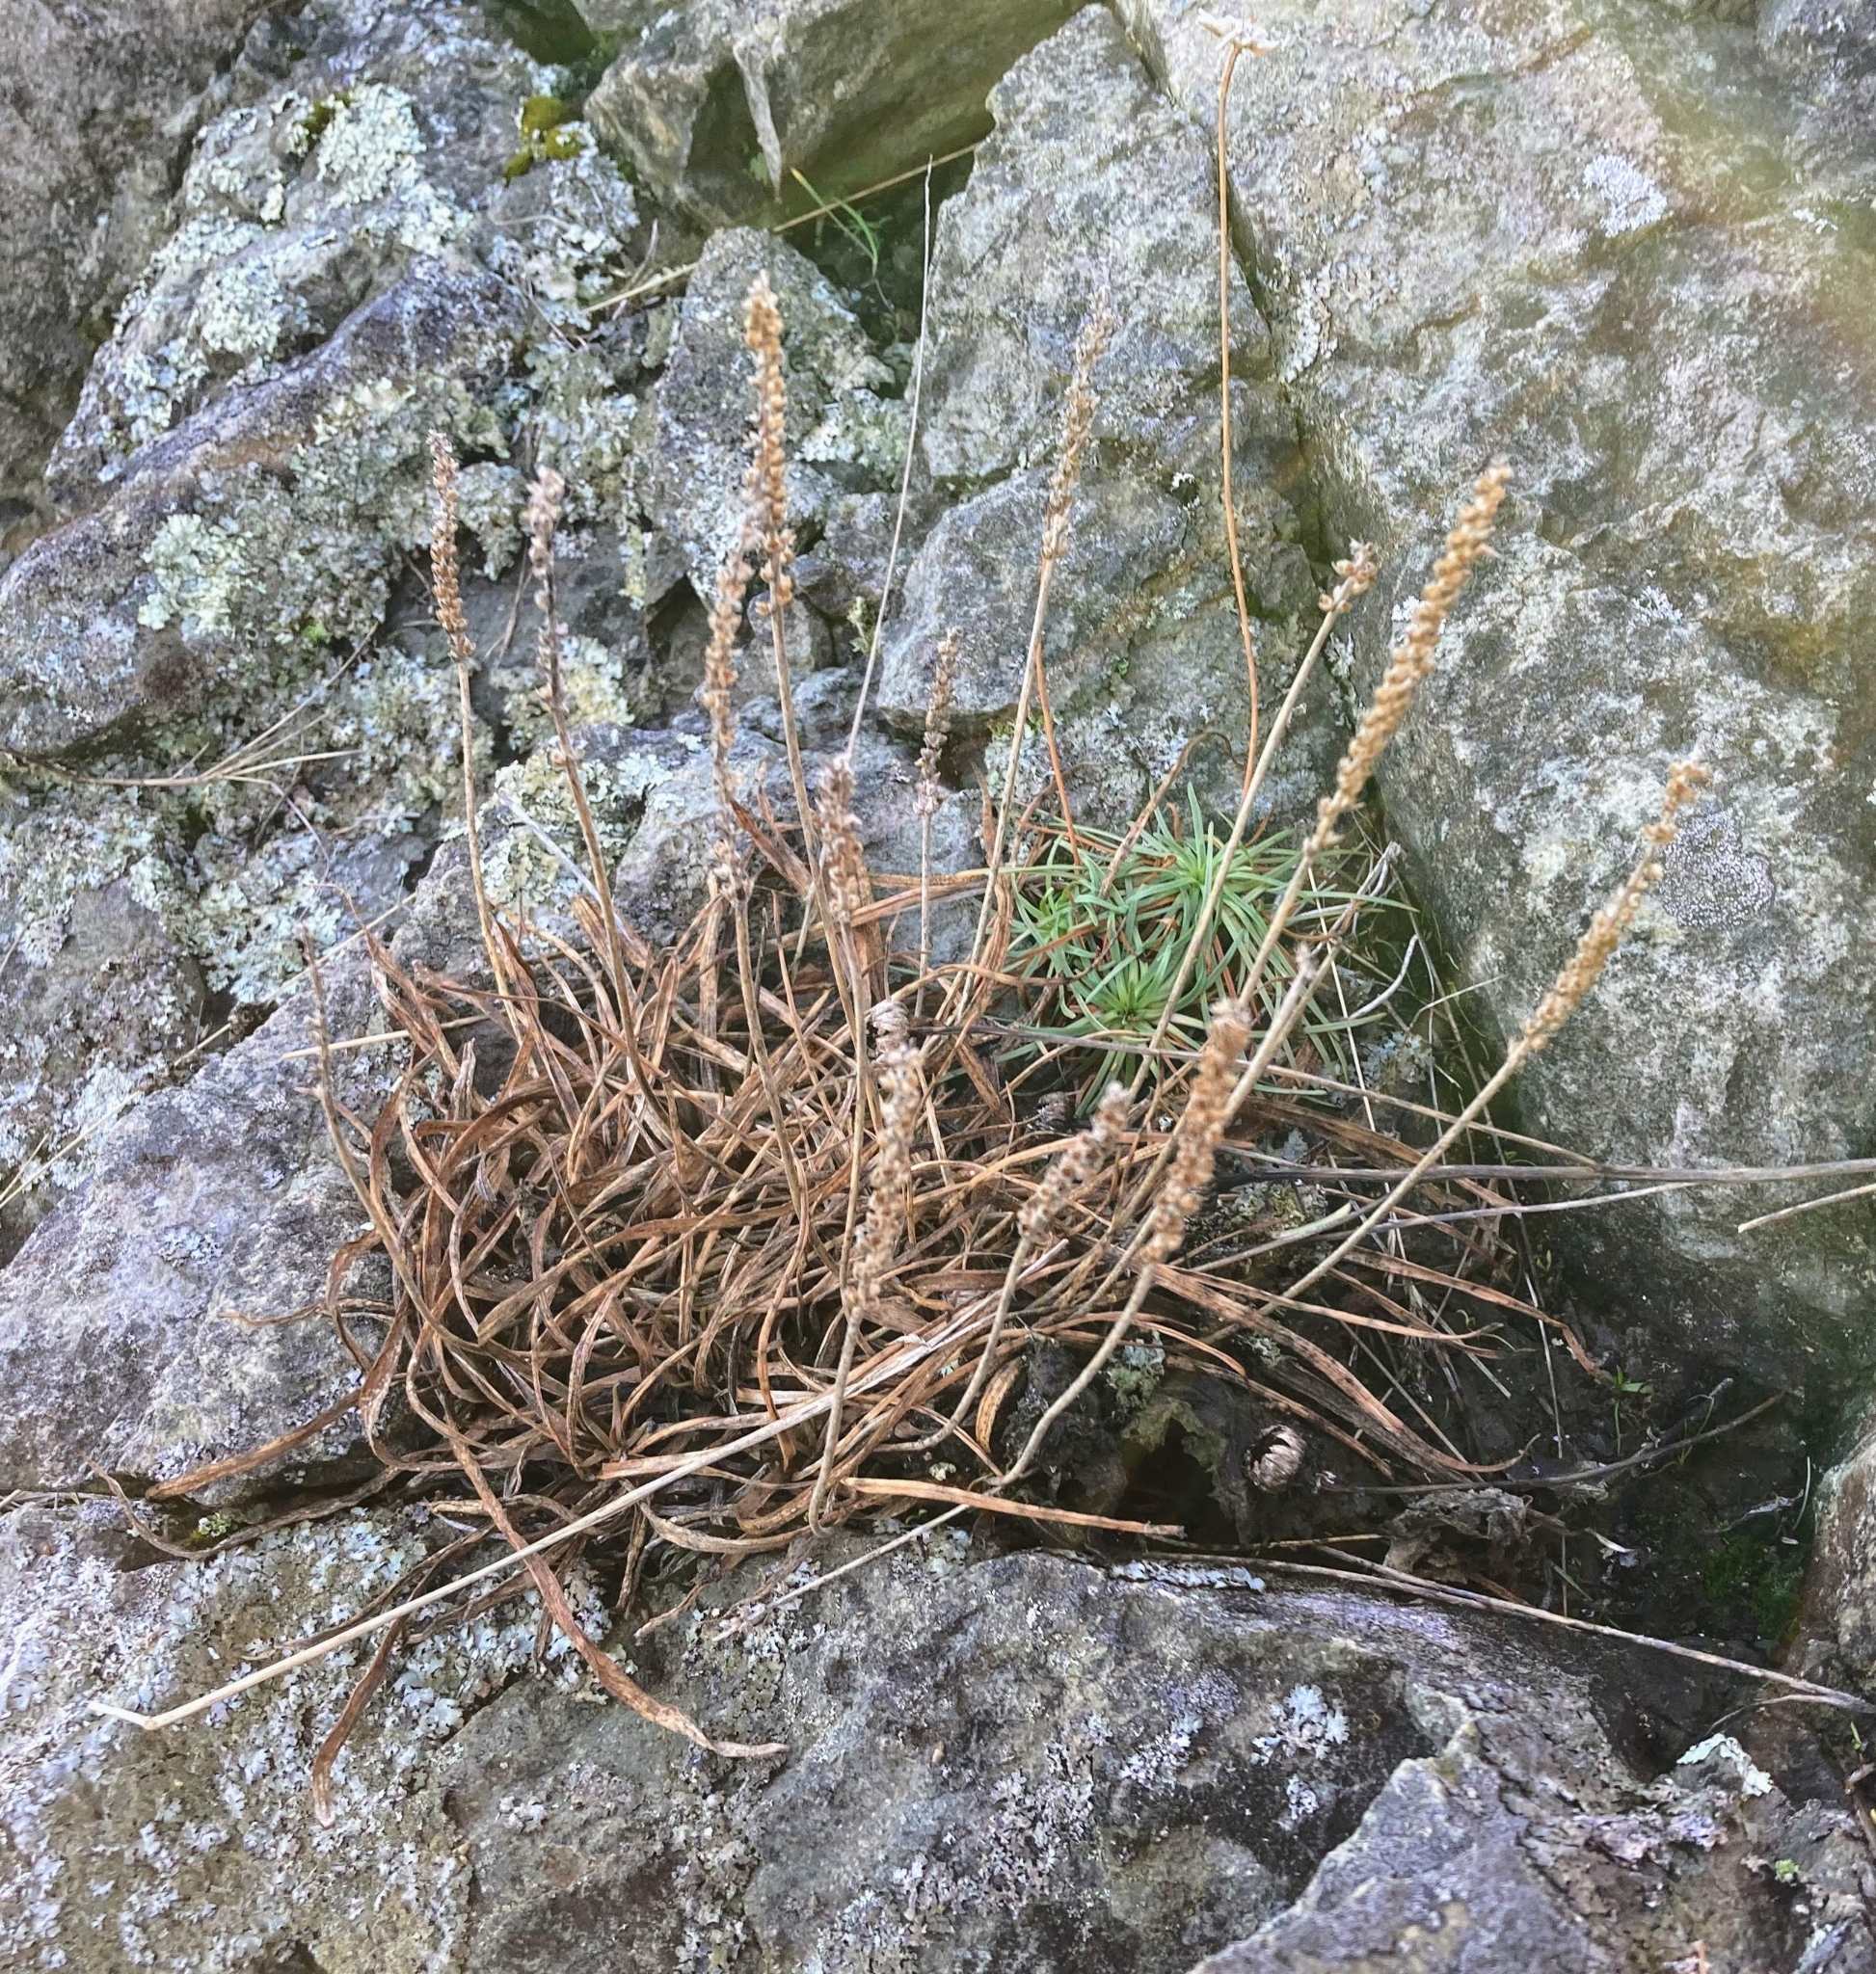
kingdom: Plantae
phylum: Tracheophyta
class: Magnoliopsida
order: Lamiales
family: Plantaginaceae
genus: Plantago
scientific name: Plantago maritima
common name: Sea plantain
